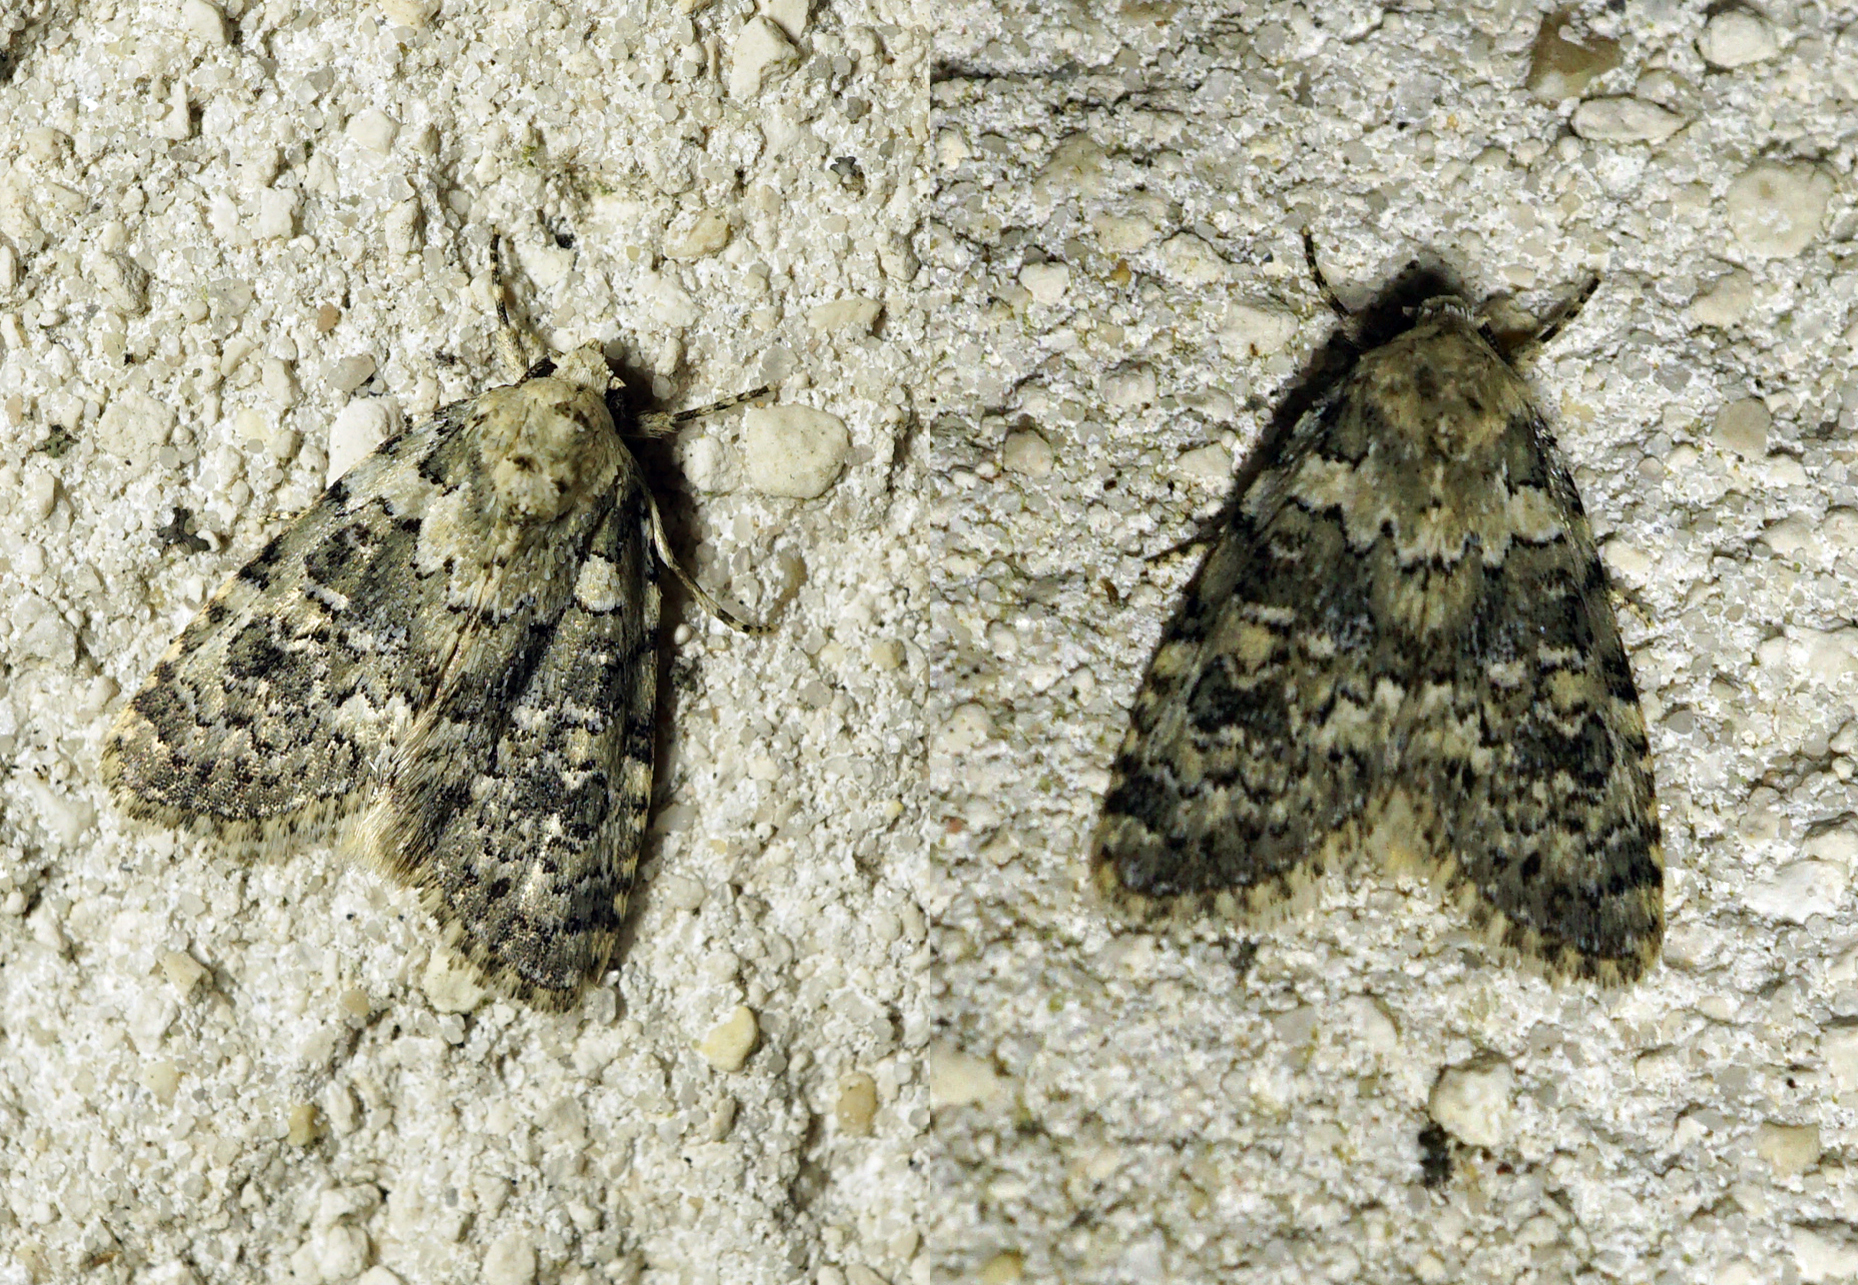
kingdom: Animalia
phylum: Arthropoda
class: Insecta
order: Lepidoptera
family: Noctuidae
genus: Bryophila
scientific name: Bryophila domestica
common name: Marbled beauty
